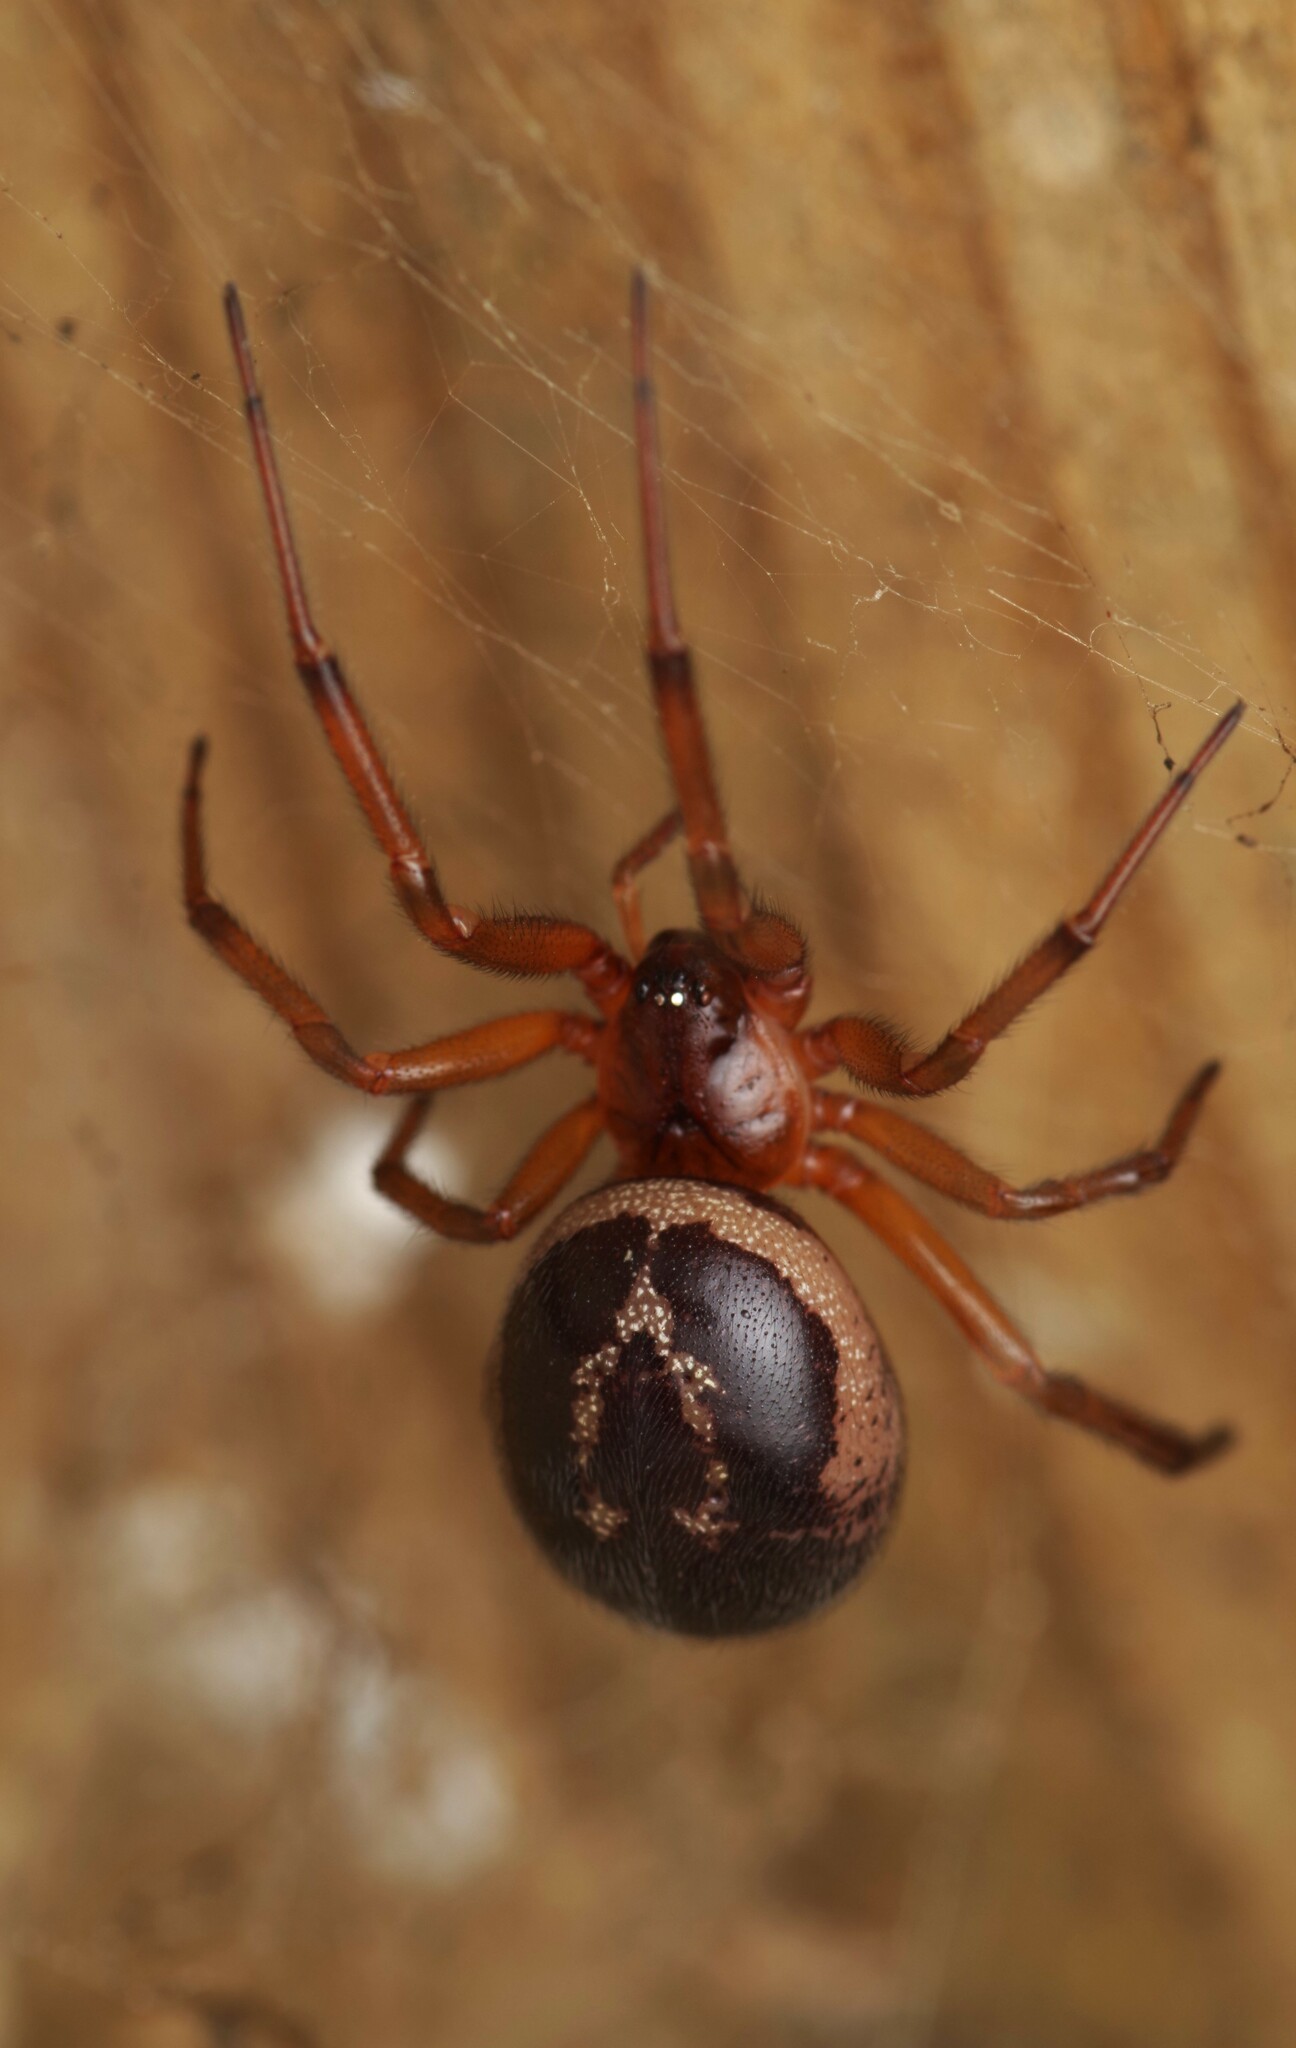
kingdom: Animalia
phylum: Arthropoda
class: Arachnida
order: Araneae
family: Theridiidae
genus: Steatoda
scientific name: Steatoda nobilis
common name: Cobweb weaver
